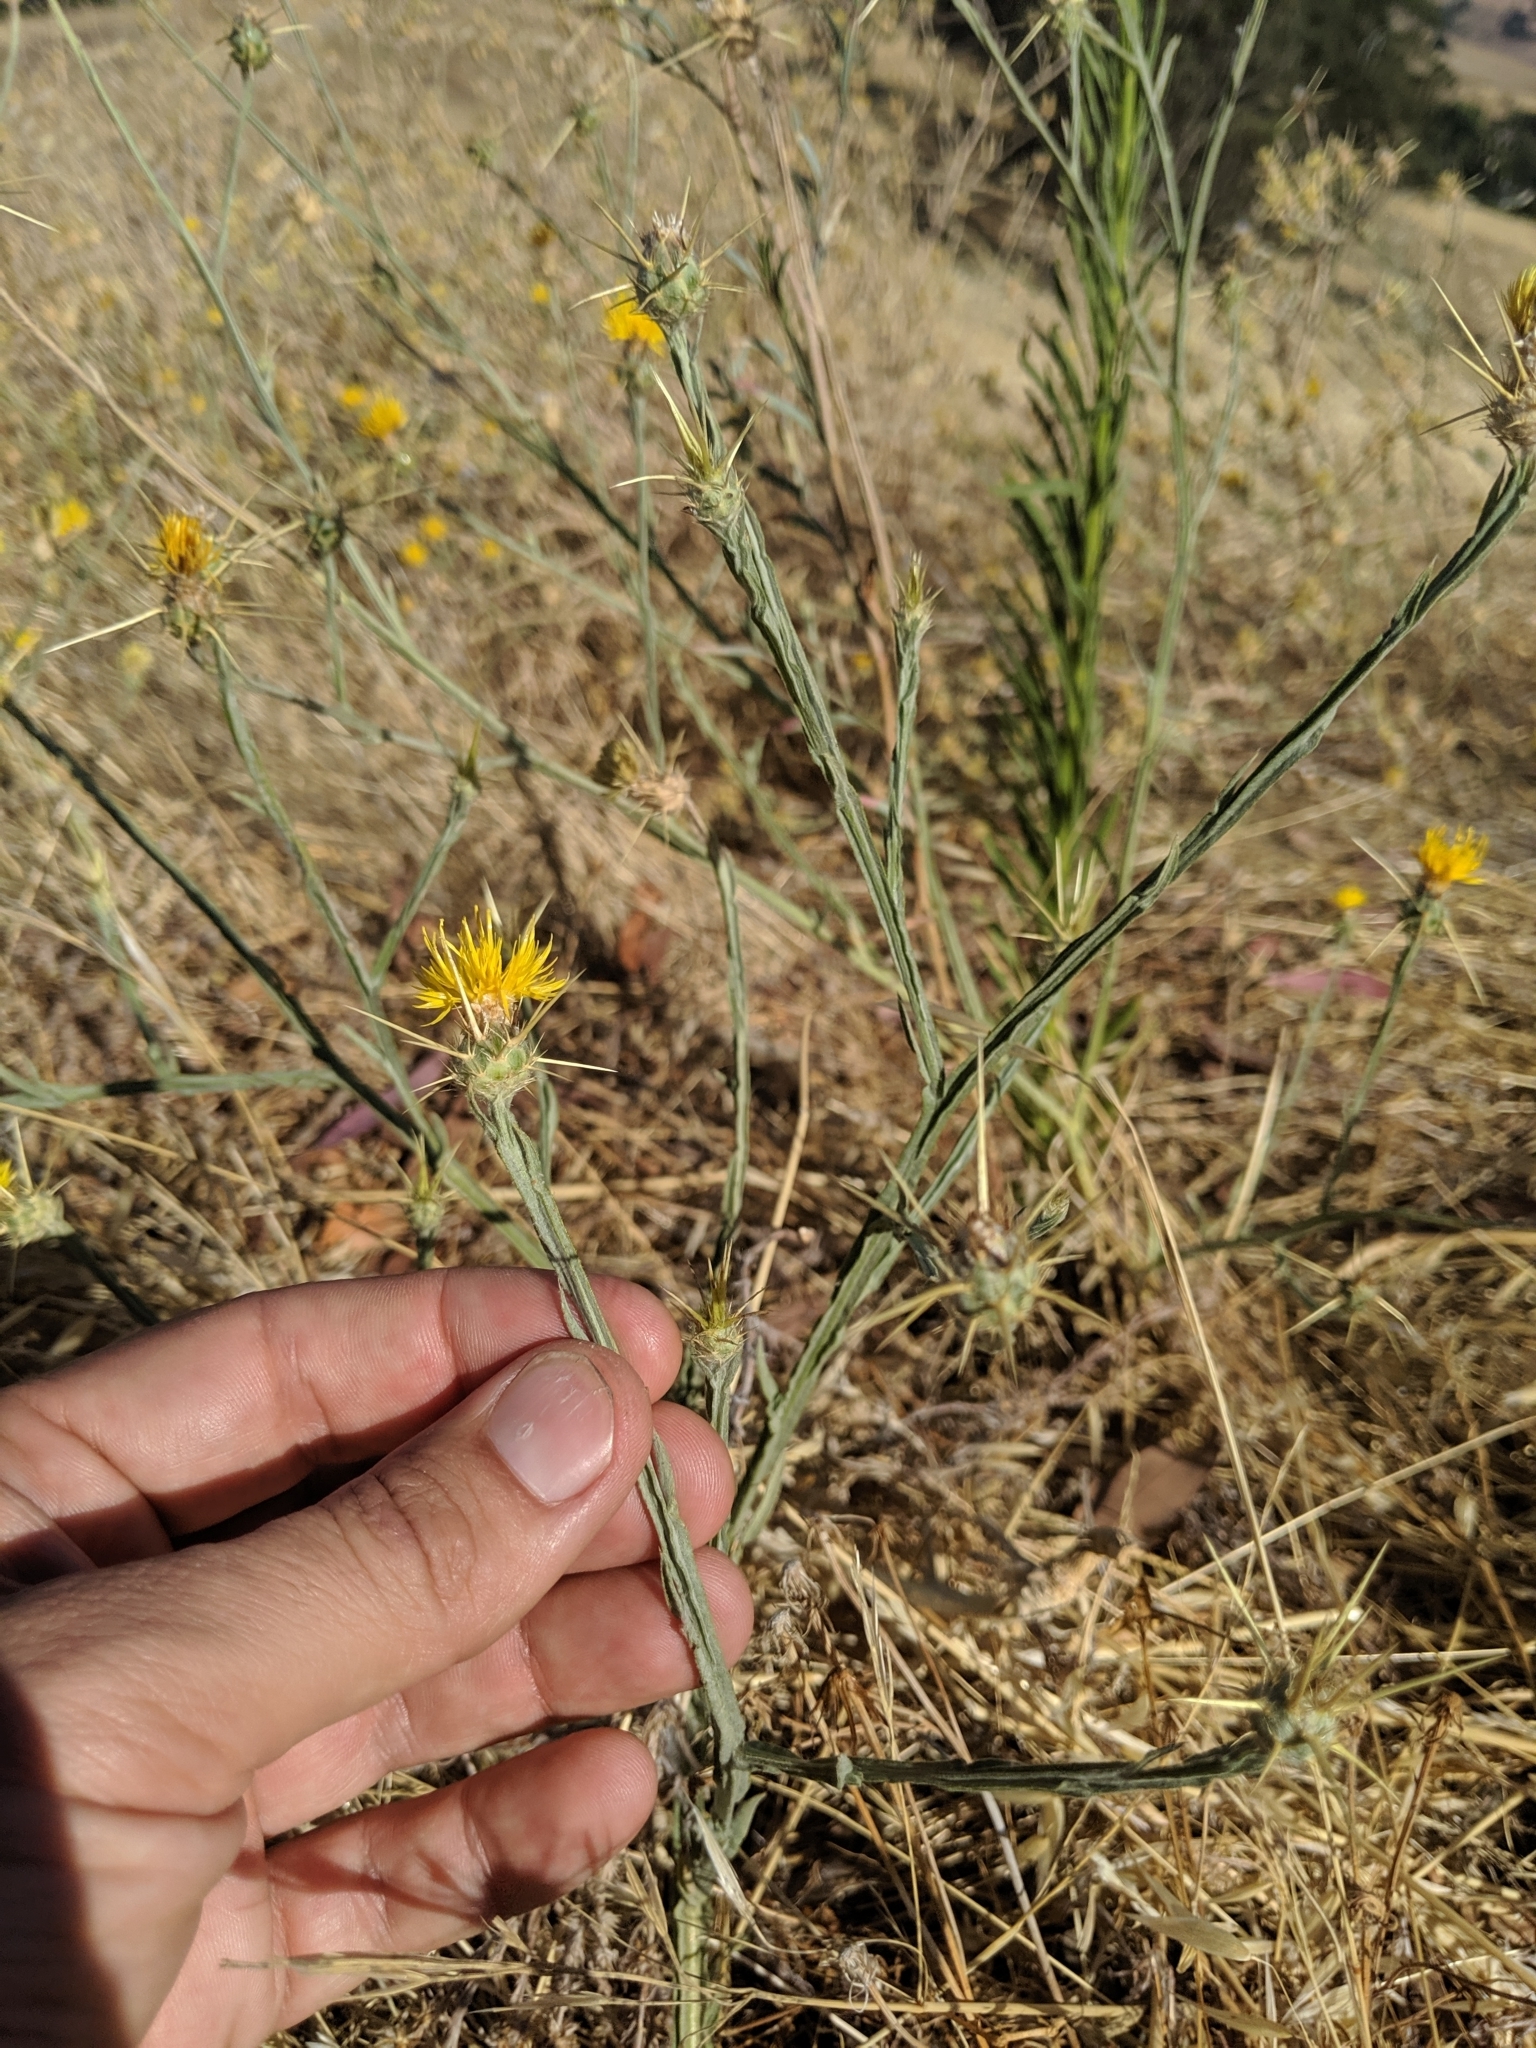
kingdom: Plantae
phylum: Tracheophyta
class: Magnoliopsida
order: Asterales
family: Asteraceae
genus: Centaurea
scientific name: Centaurea solstitialis
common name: Yellow star-thistle
